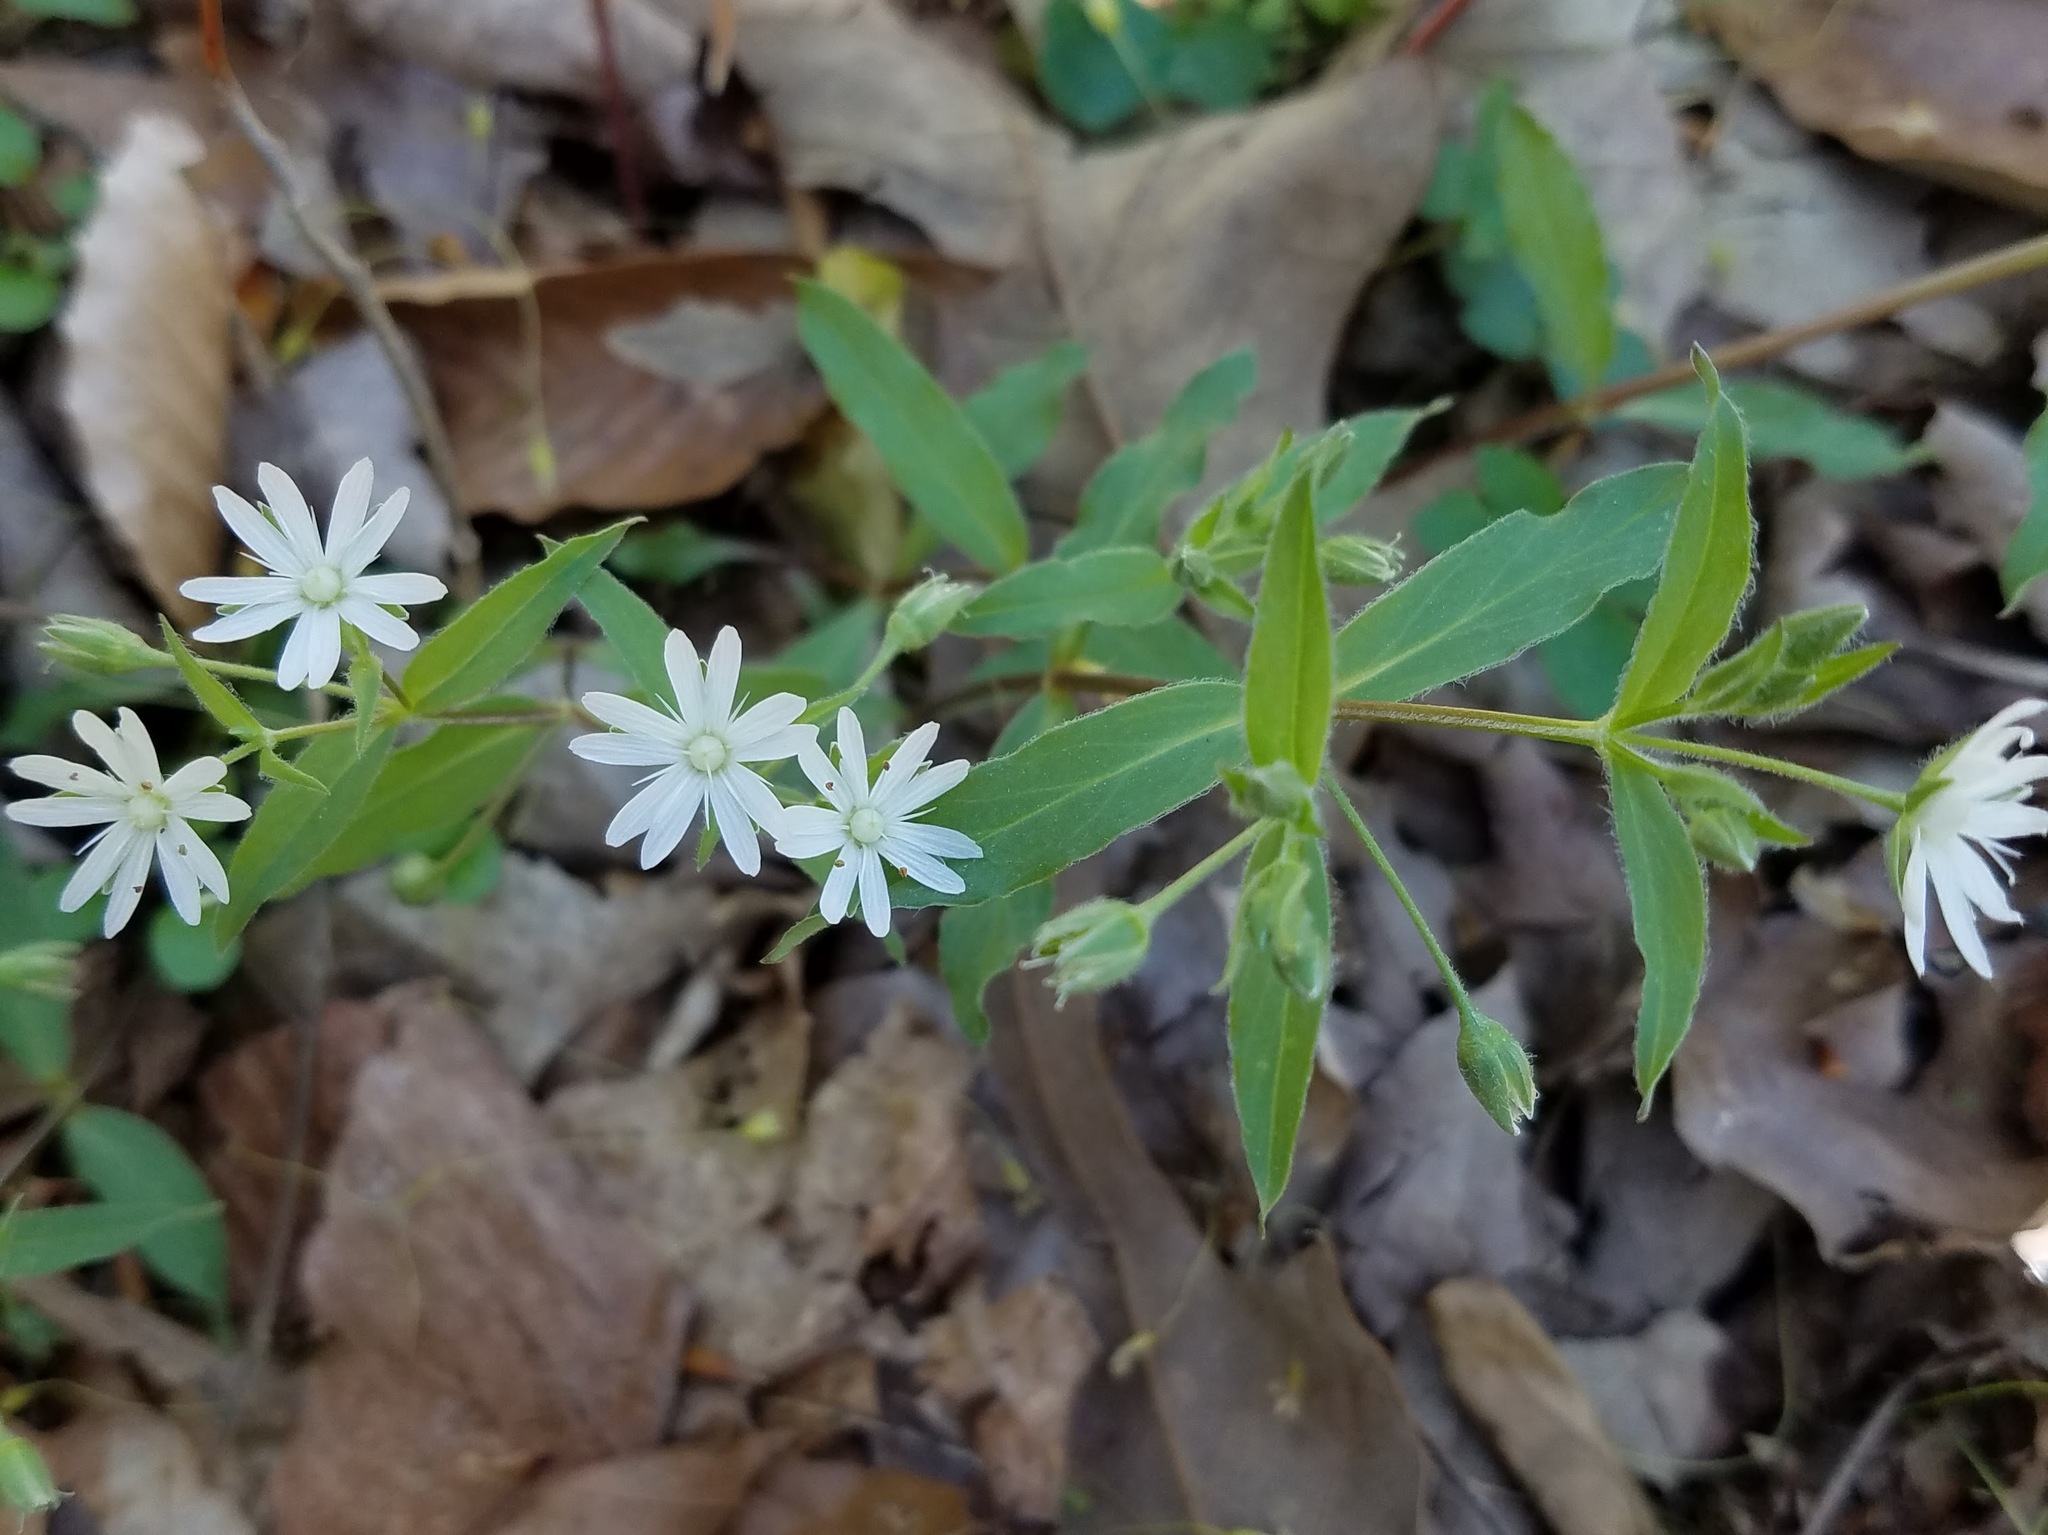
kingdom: Plantae
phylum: Tracheophyta
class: Magnoliopsida
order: Caryophyllales
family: Caryophyllaceae
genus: Stellaria
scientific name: Stellaria pubera
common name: Star chickweed
